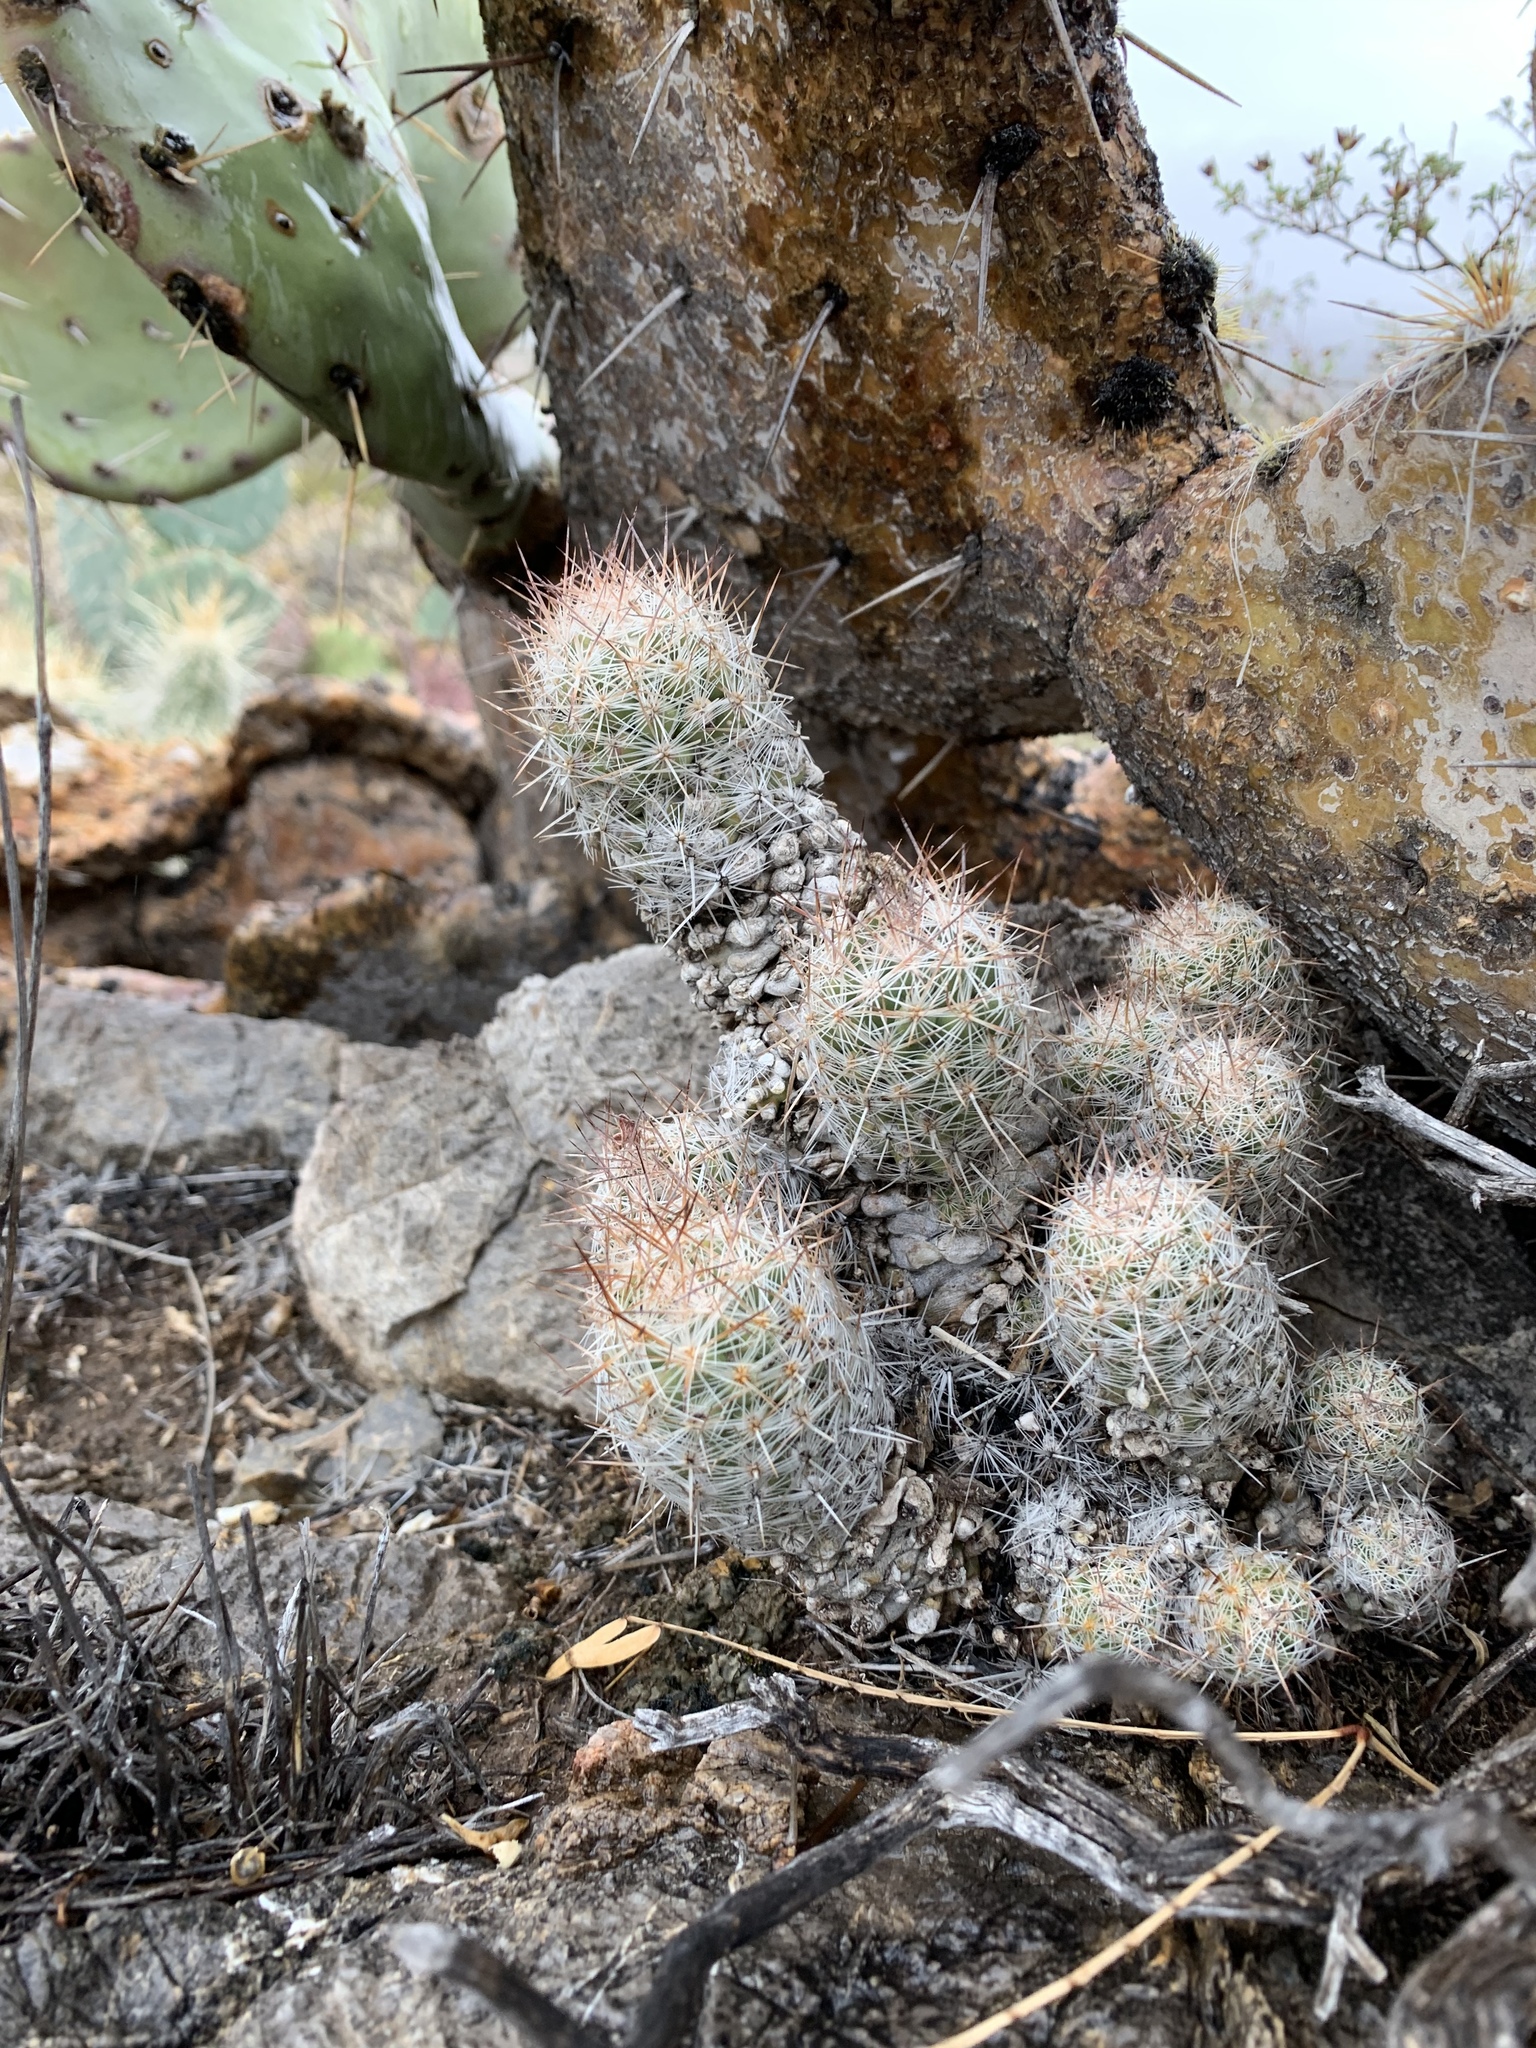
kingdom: Plantae
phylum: Tracheophyta
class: Magnoliopsida
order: Caryophyllales
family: Cactaceae
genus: Pelecyphora
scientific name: Pelecyphora tuberculosa
